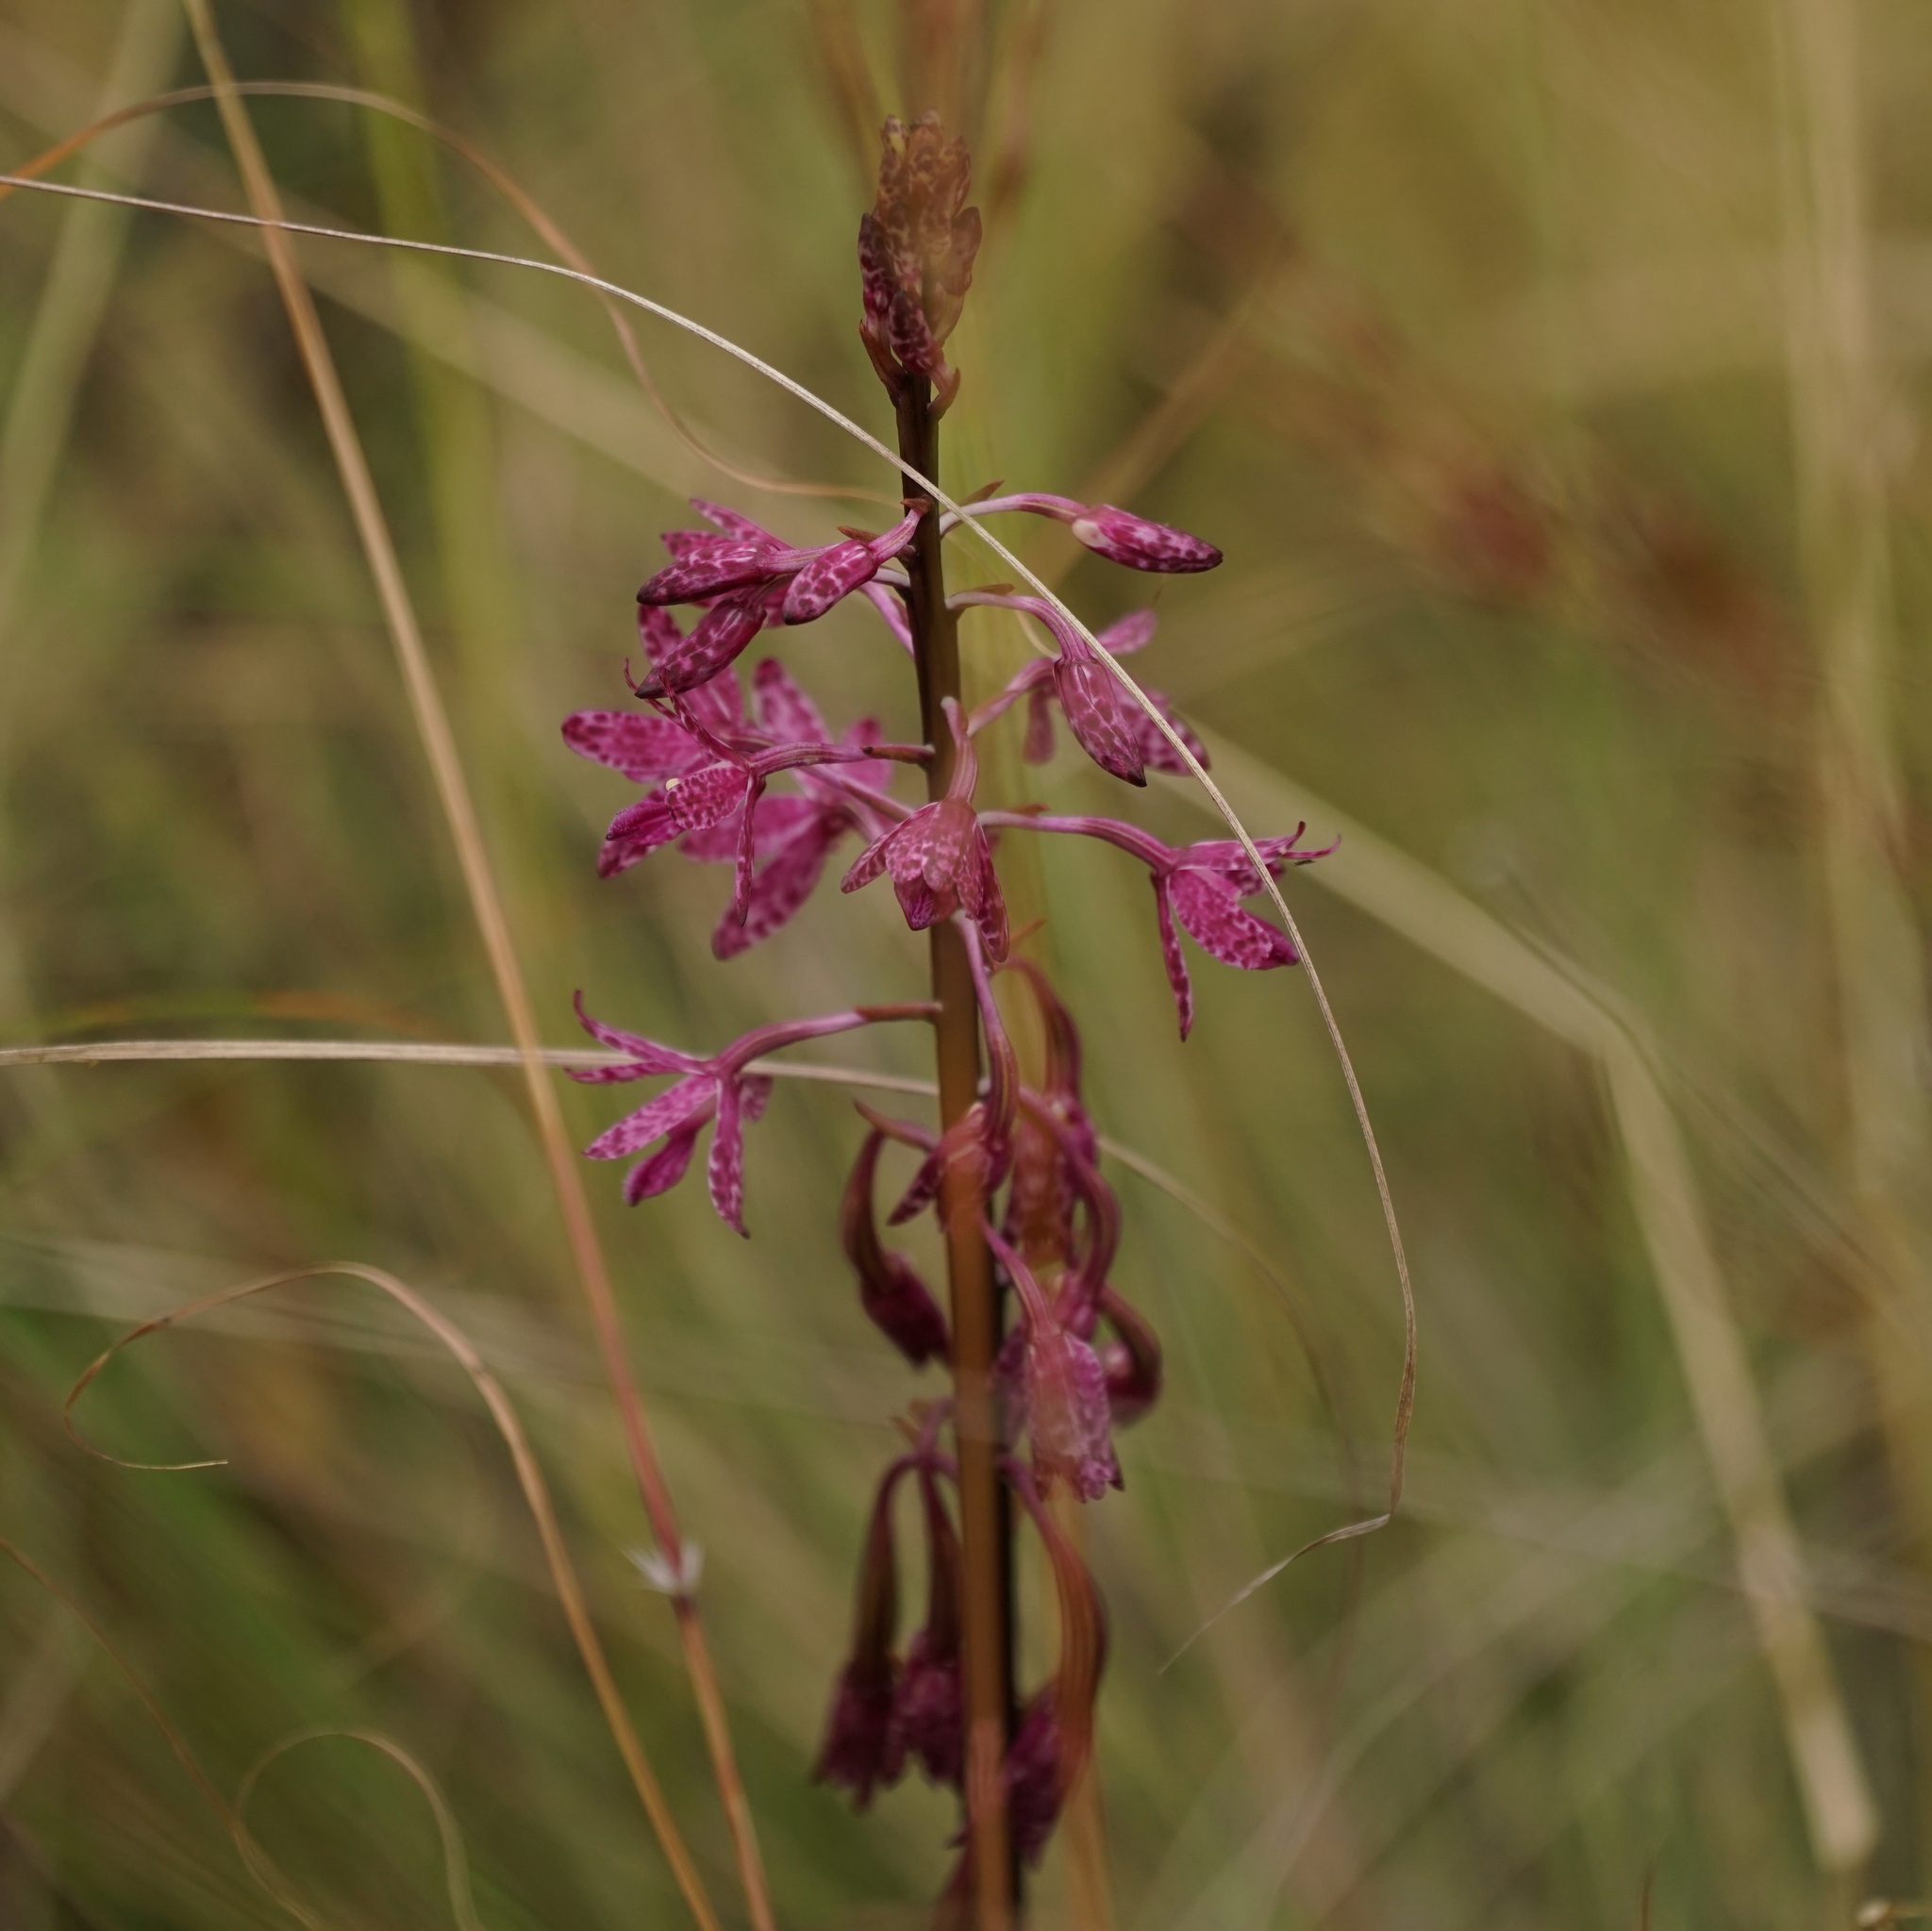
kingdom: Plantae
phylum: Tracheophyta
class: Liliopsida
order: Asparagales
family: Orchidaceae
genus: Dipodium
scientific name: Dipodium squamatum
